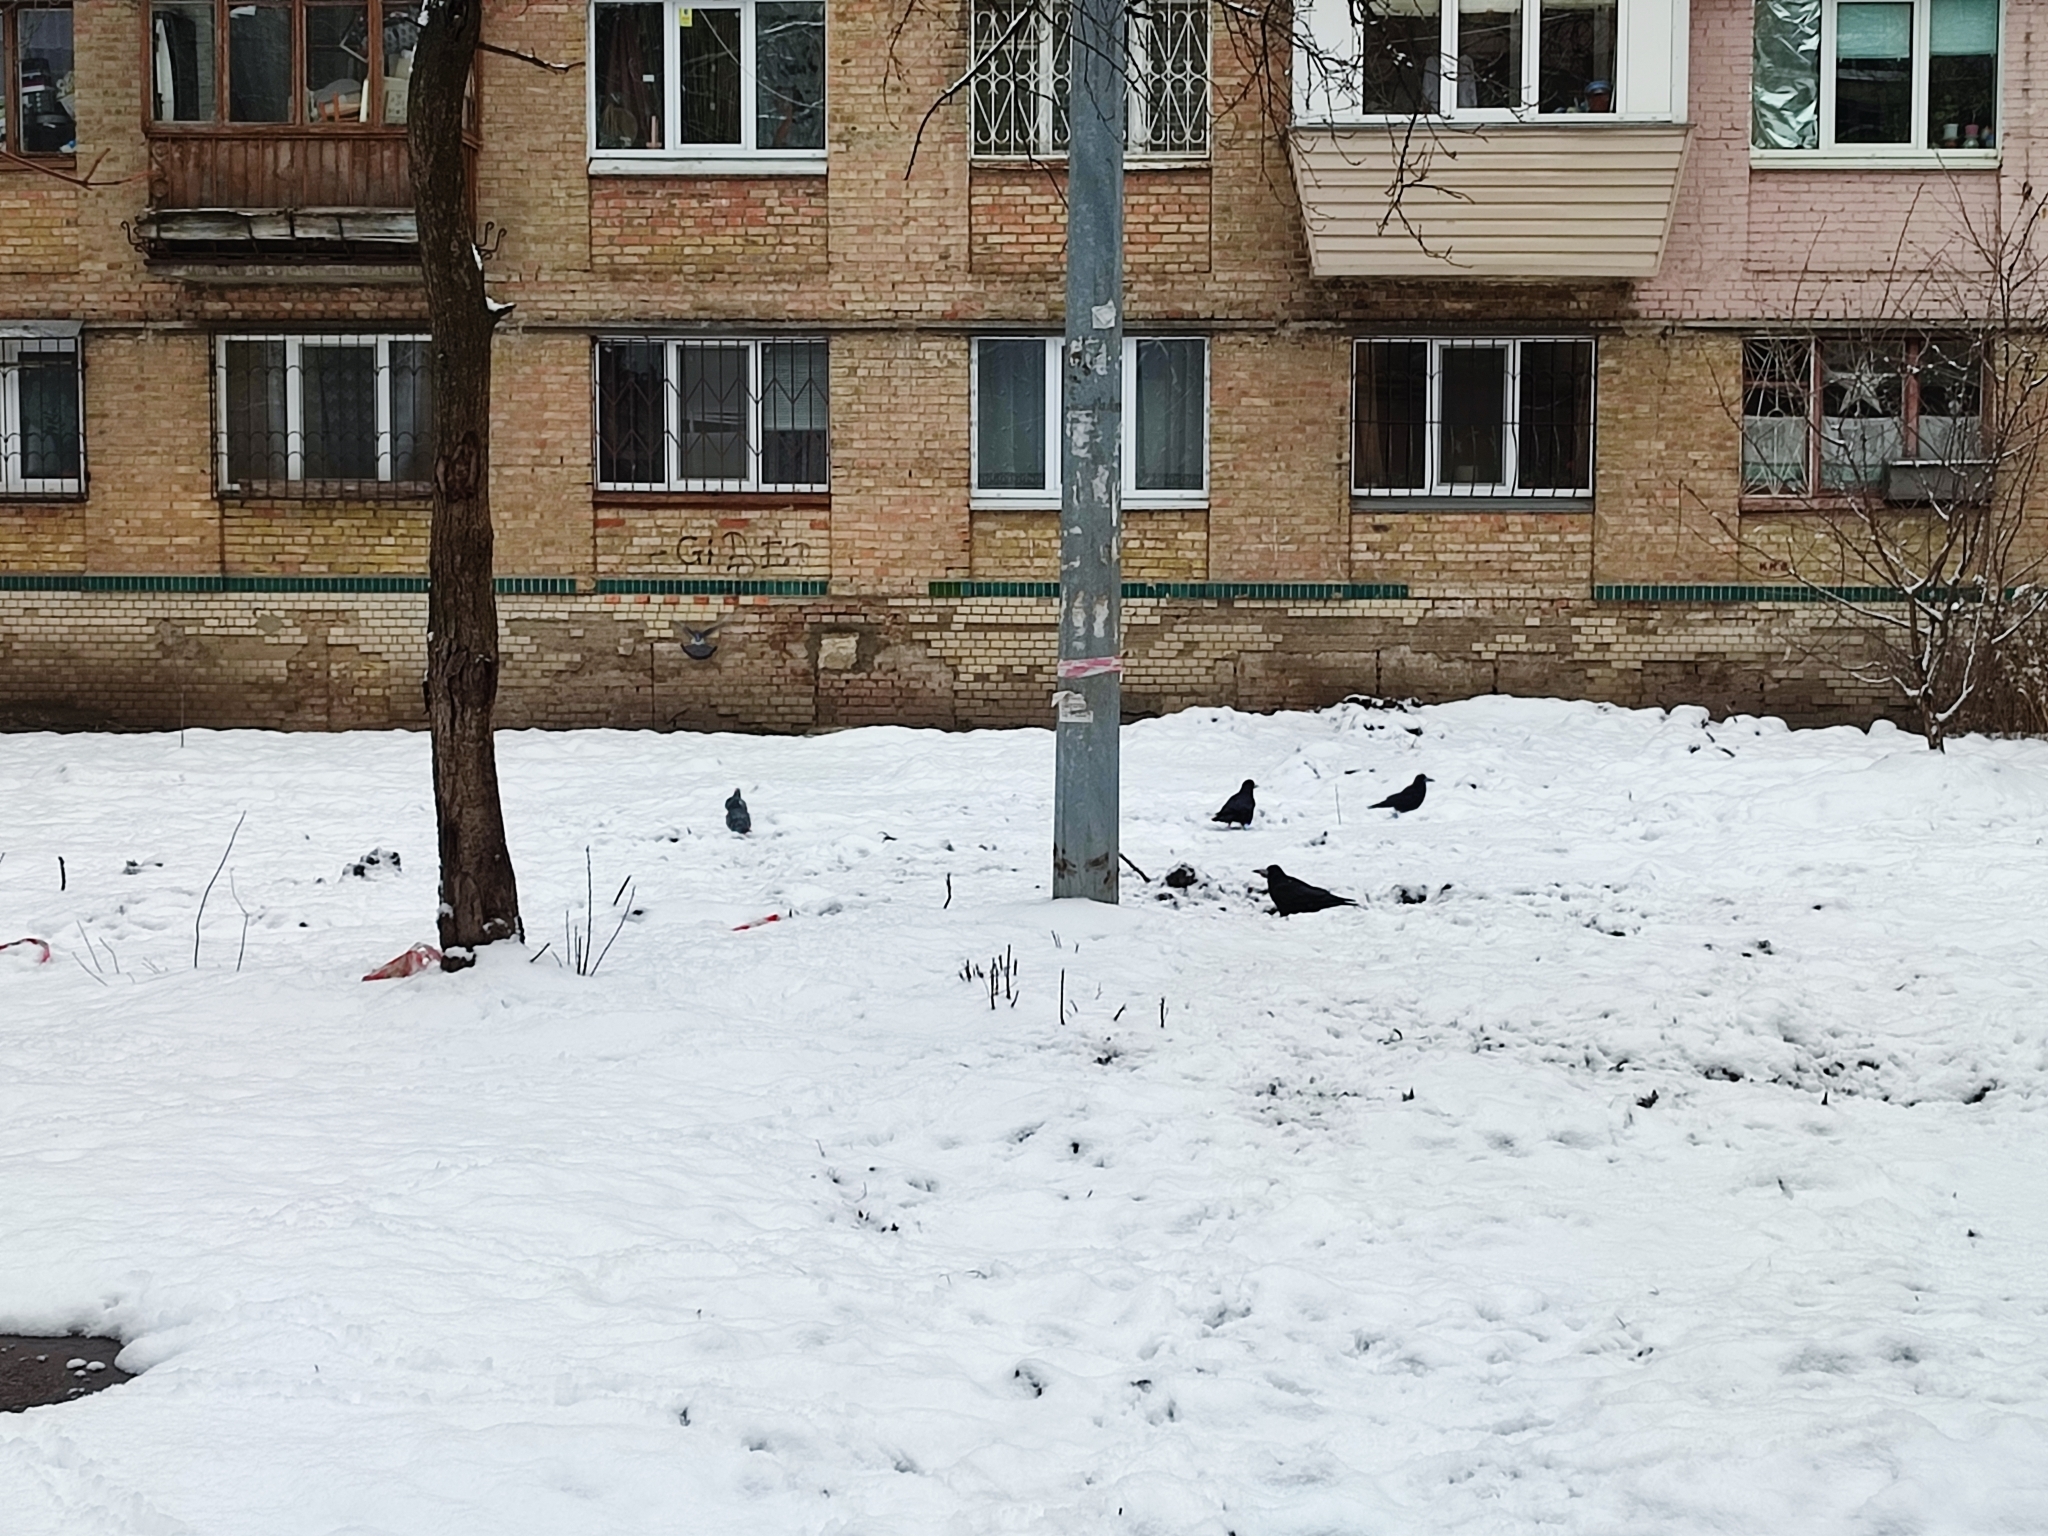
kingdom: Animalia
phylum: Chordata
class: Aves
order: Passeriformes
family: Corvidae
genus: Corvus
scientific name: Corvus frugilegus
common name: Rook
